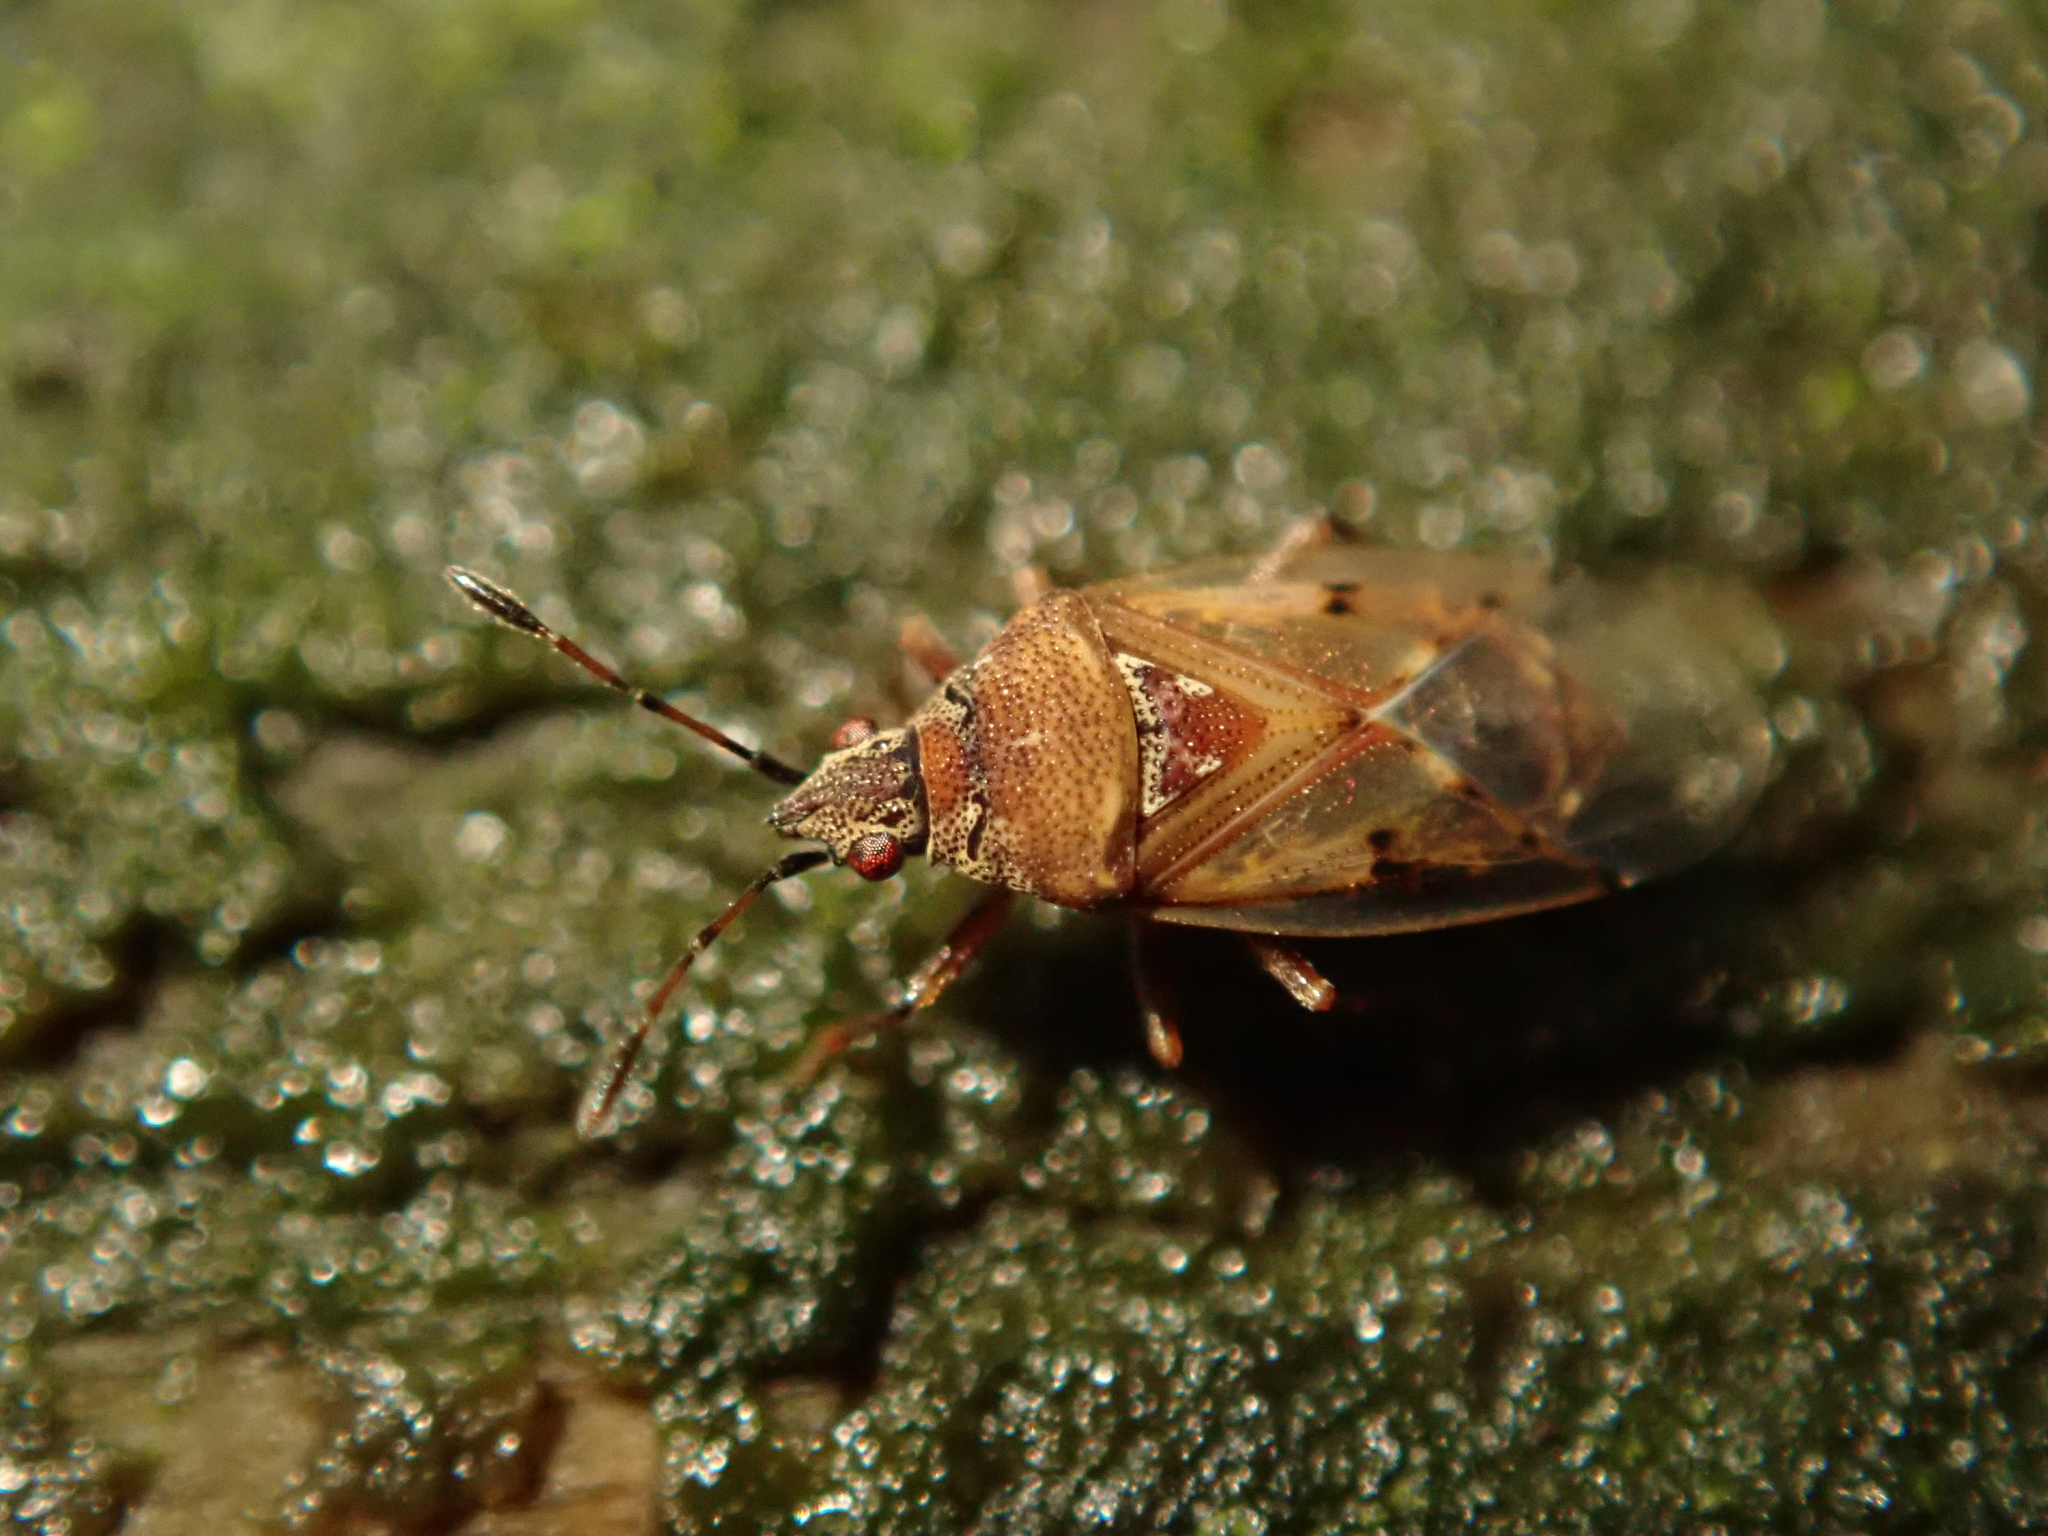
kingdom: Animalia
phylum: Arthropoda
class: Insecta
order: Hemiptera
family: Lygaeidae
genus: Kleidocerys
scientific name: Kleidocerys resedae
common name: Birch catkin bug
